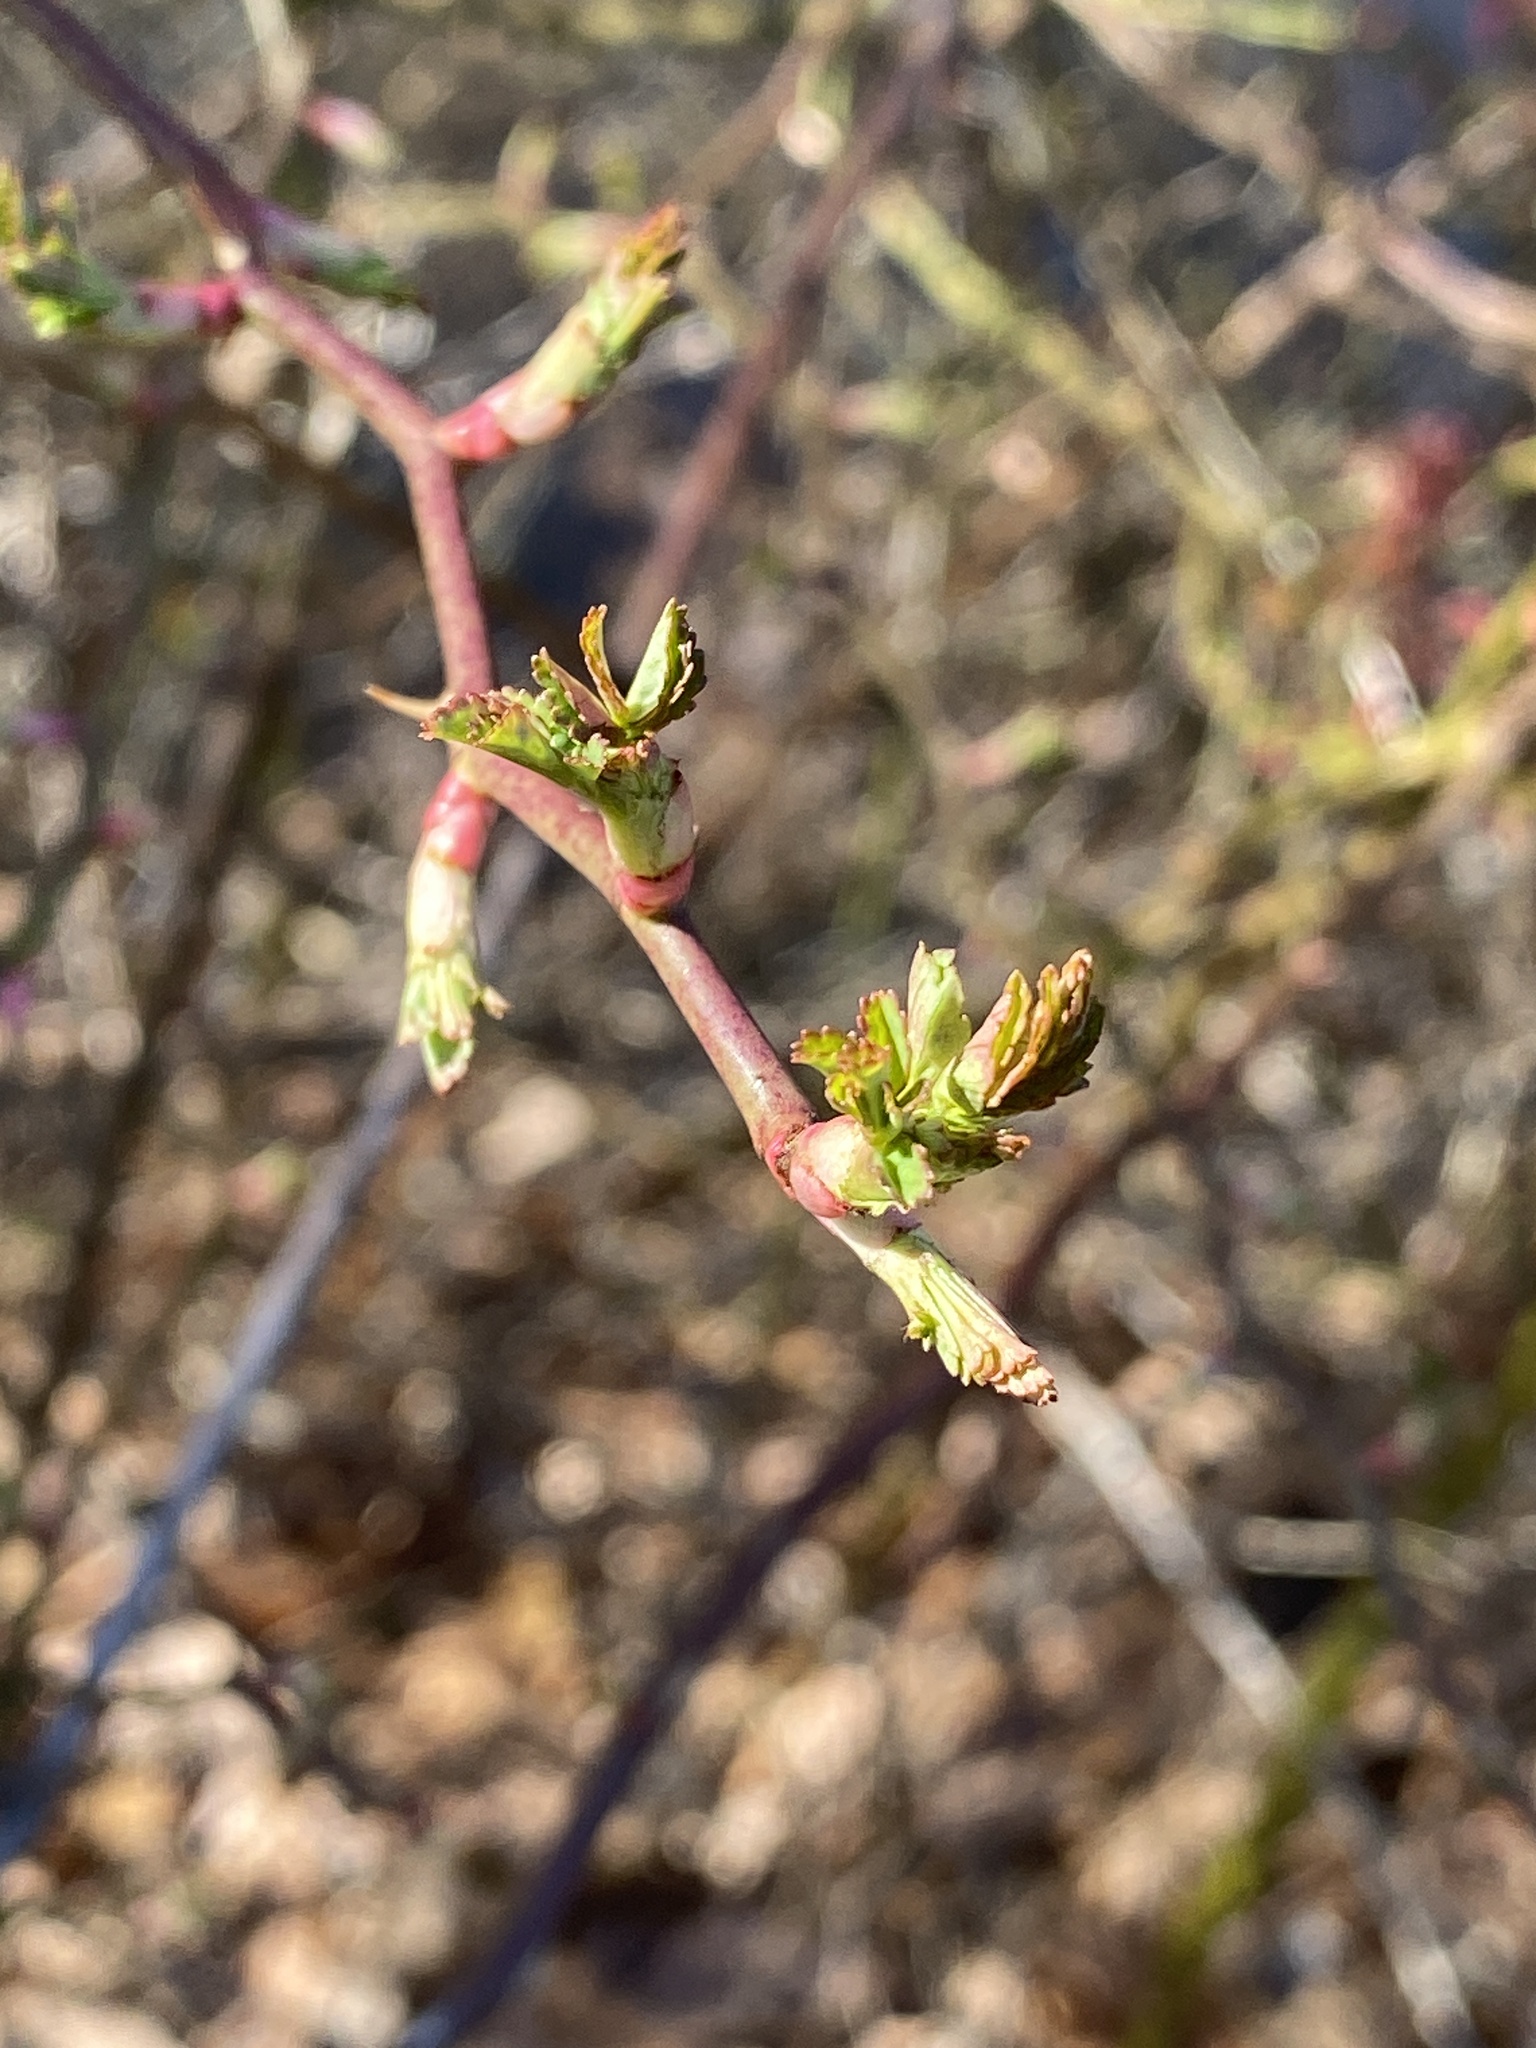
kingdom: Plantae
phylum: Tracheophyta
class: Magnoliopsida
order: Rosales
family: Rosaceae
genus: Rosa
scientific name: Rosa multiflora
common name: Multiflora rose
